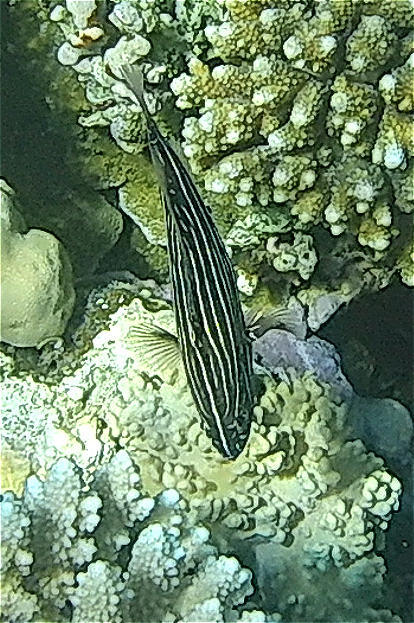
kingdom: Animalia
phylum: Chordata
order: Perciformes
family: Serranidae
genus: Grammistes
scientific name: Grammistes sexlineatus
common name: Sixline soapfish
